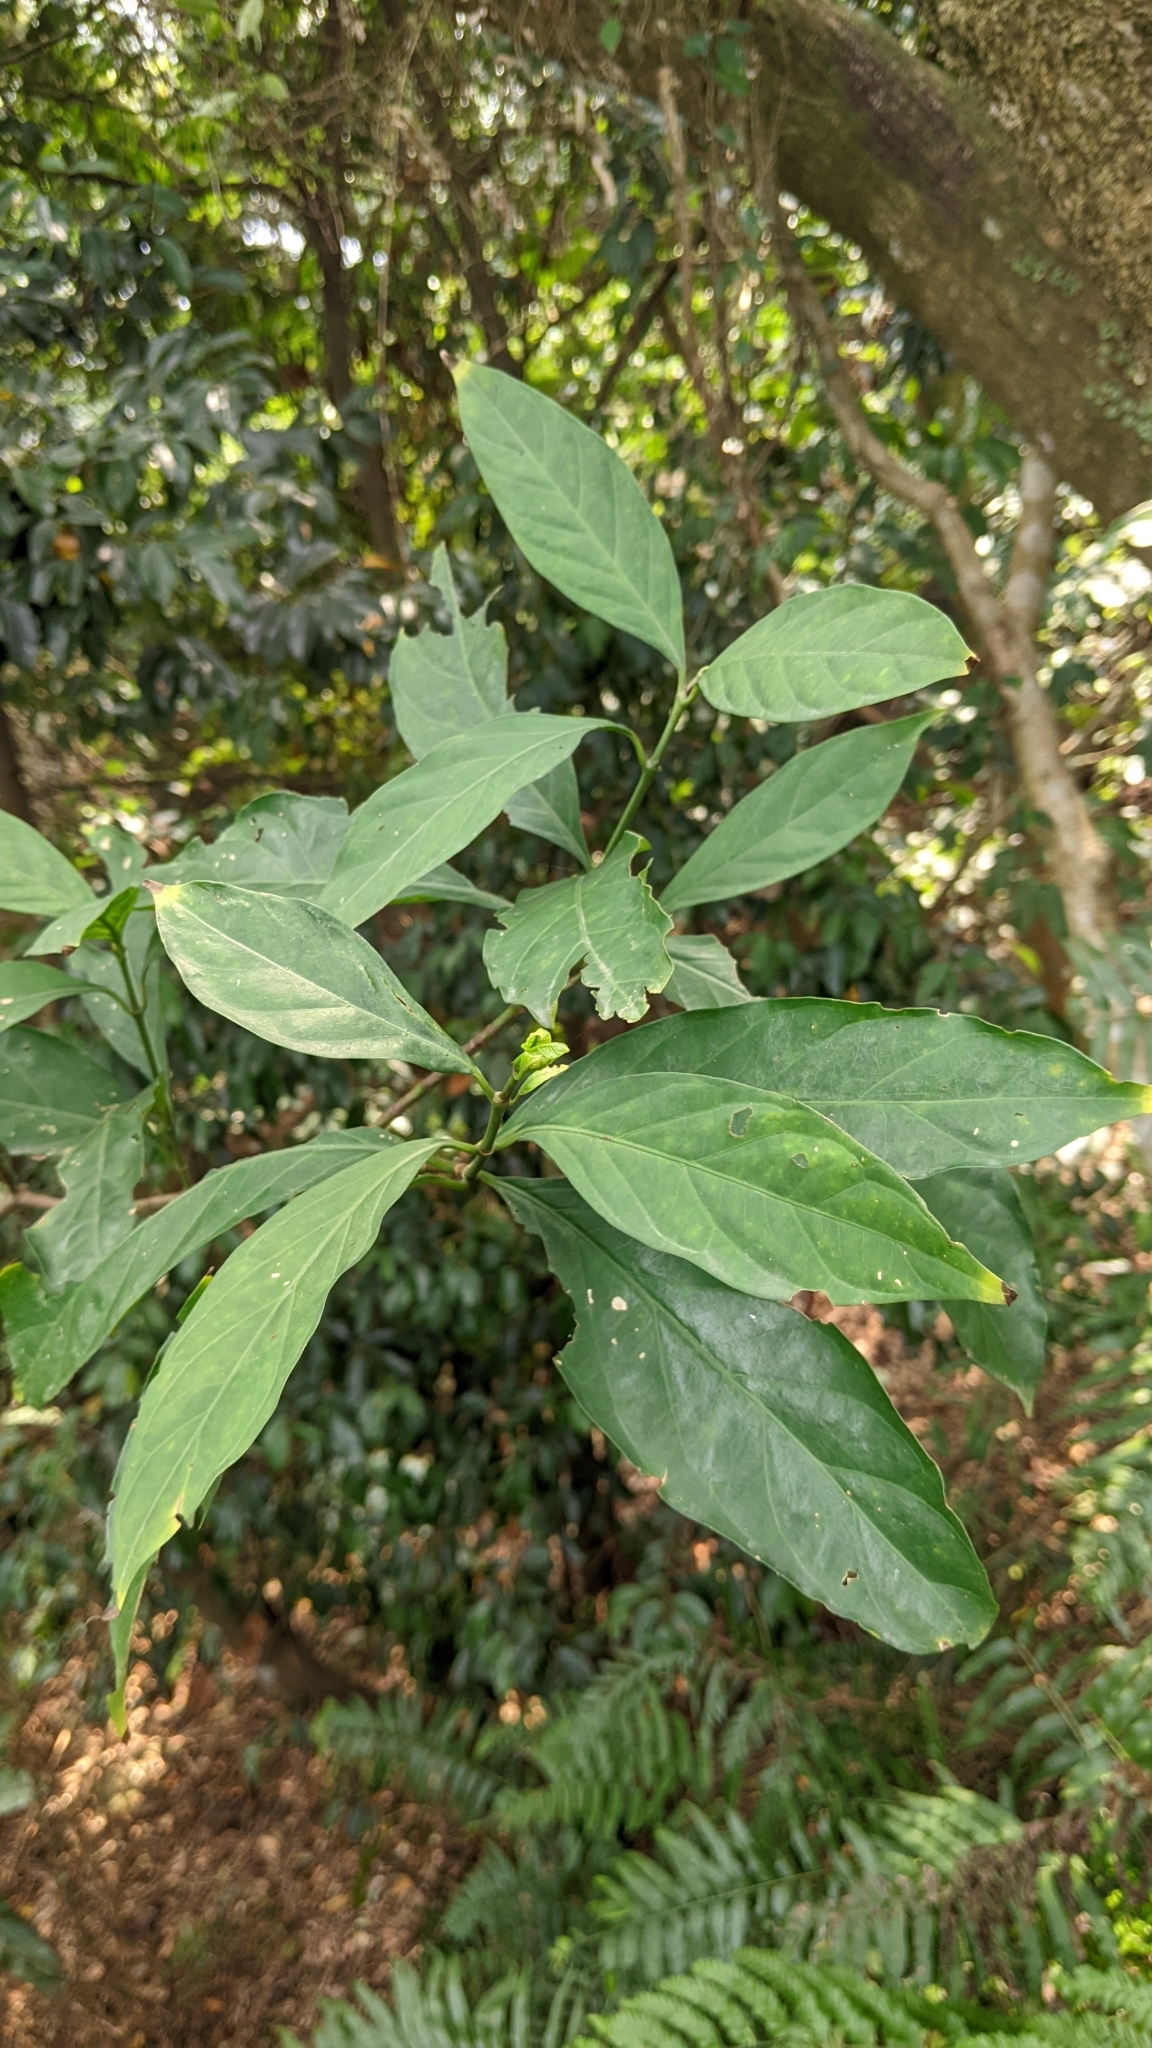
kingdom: Plantae
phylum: Tracheophyta
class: Magnoliopsida
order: Gentianales
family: Rubiaceae
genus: Aidia
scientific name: Aidia canthioides
